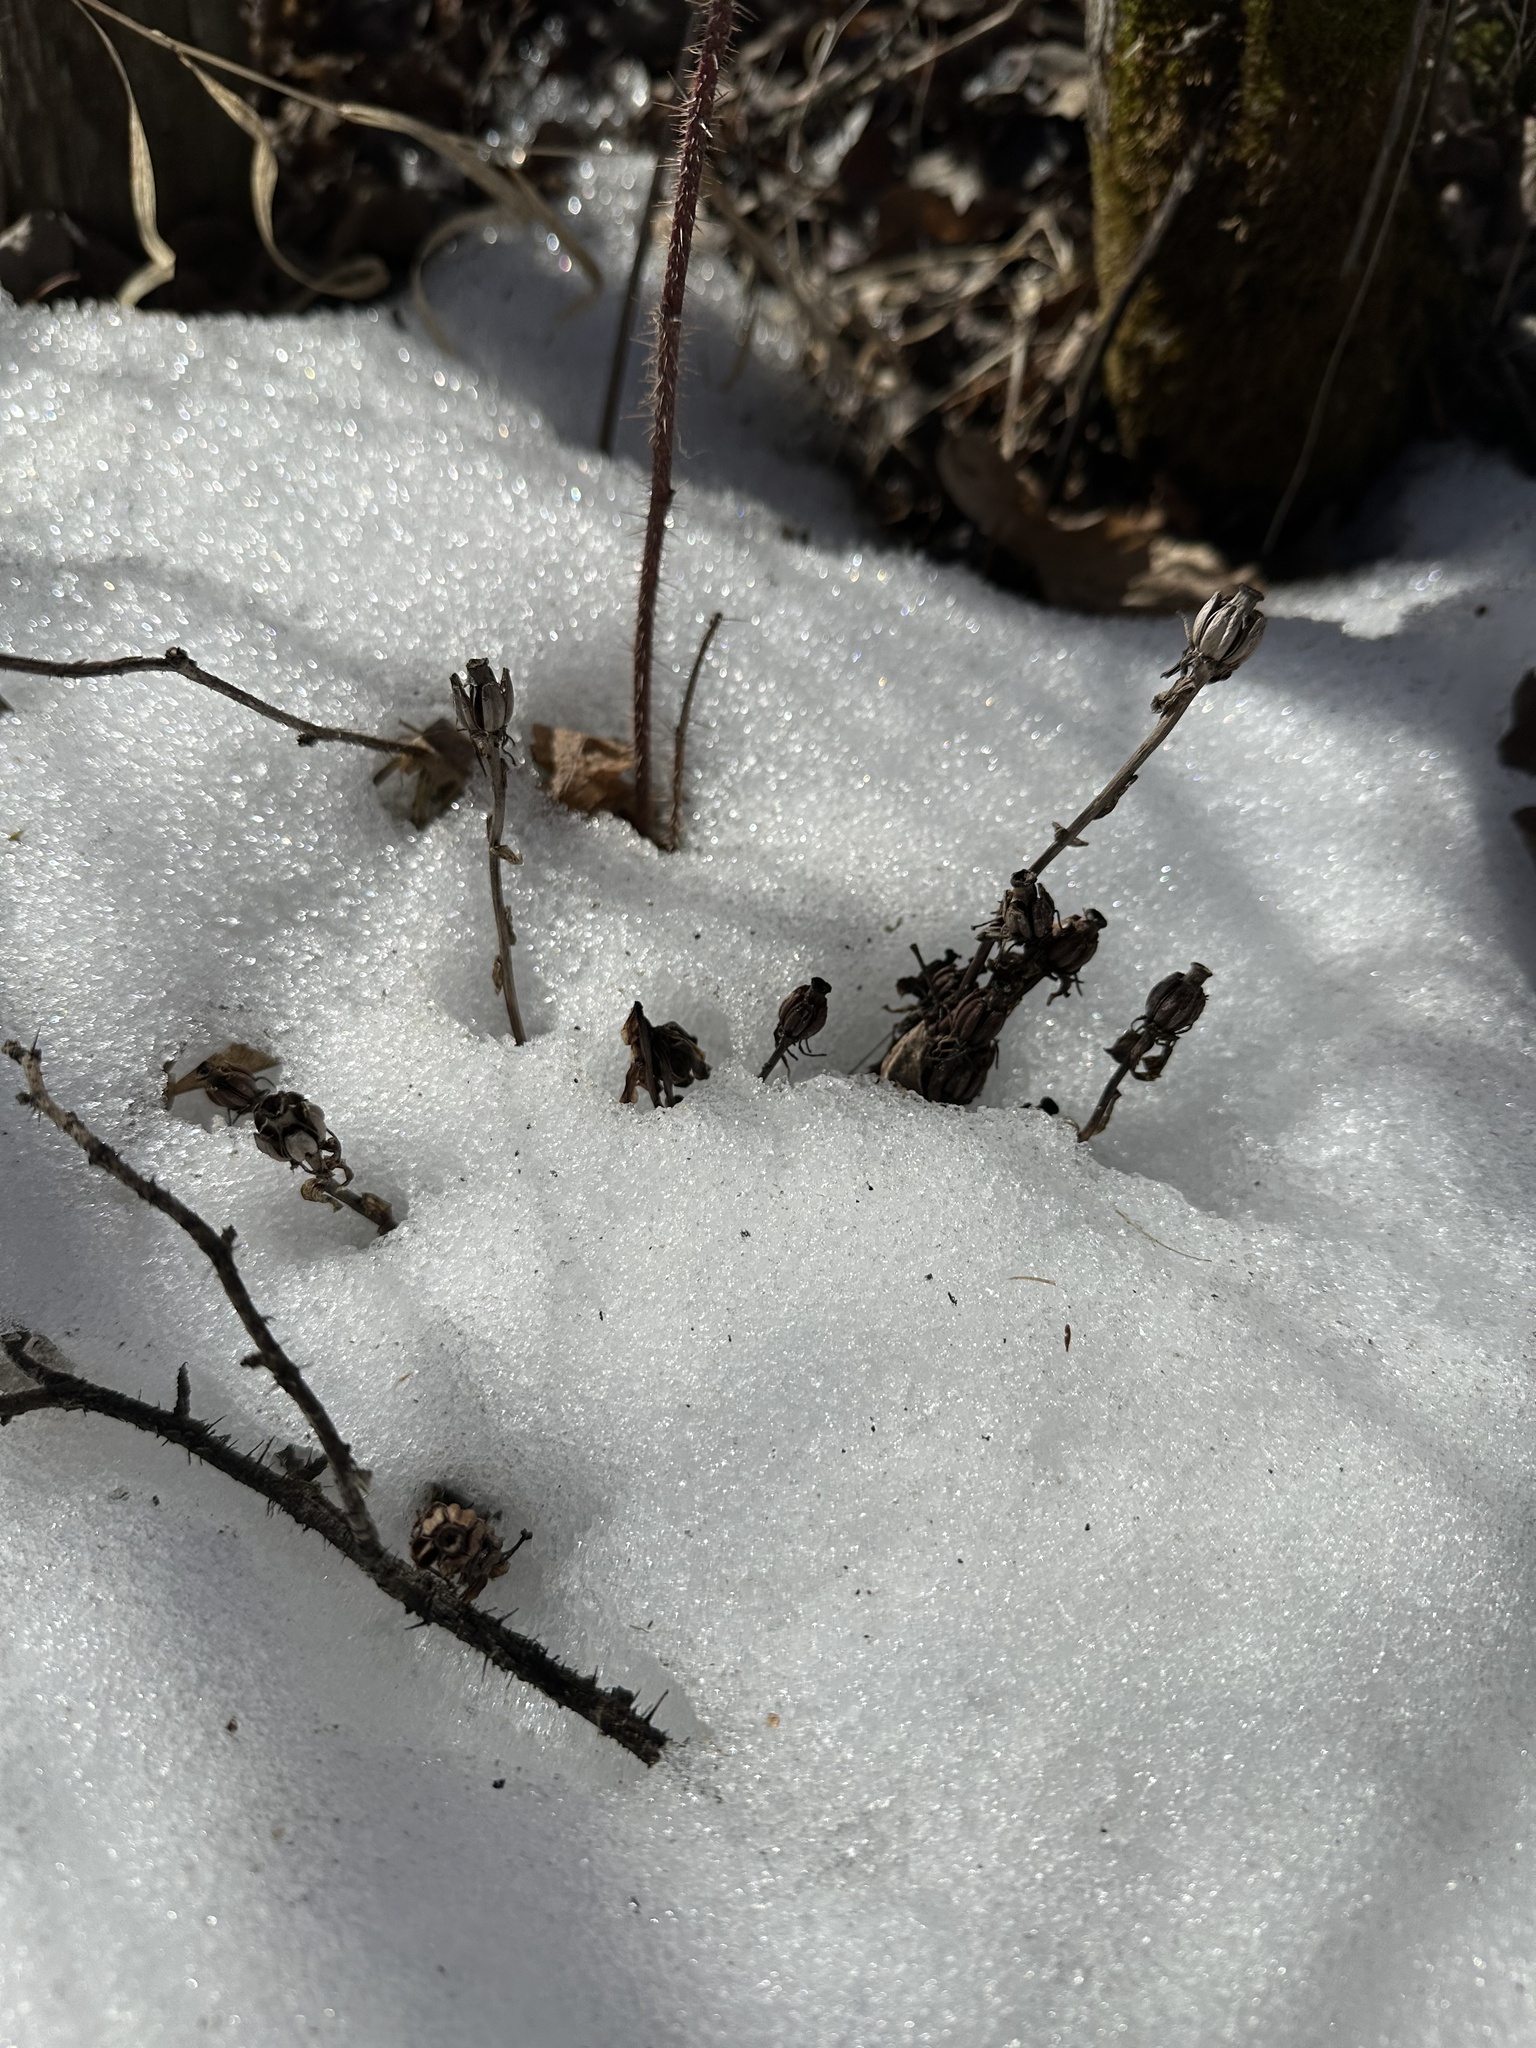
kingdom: Plantae
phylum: Tracheophyta
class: Magnoliopsida
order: Ericales
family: Ericaceae
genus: Monotropa
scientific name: Monotropa uniflora
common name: Convulsion root
